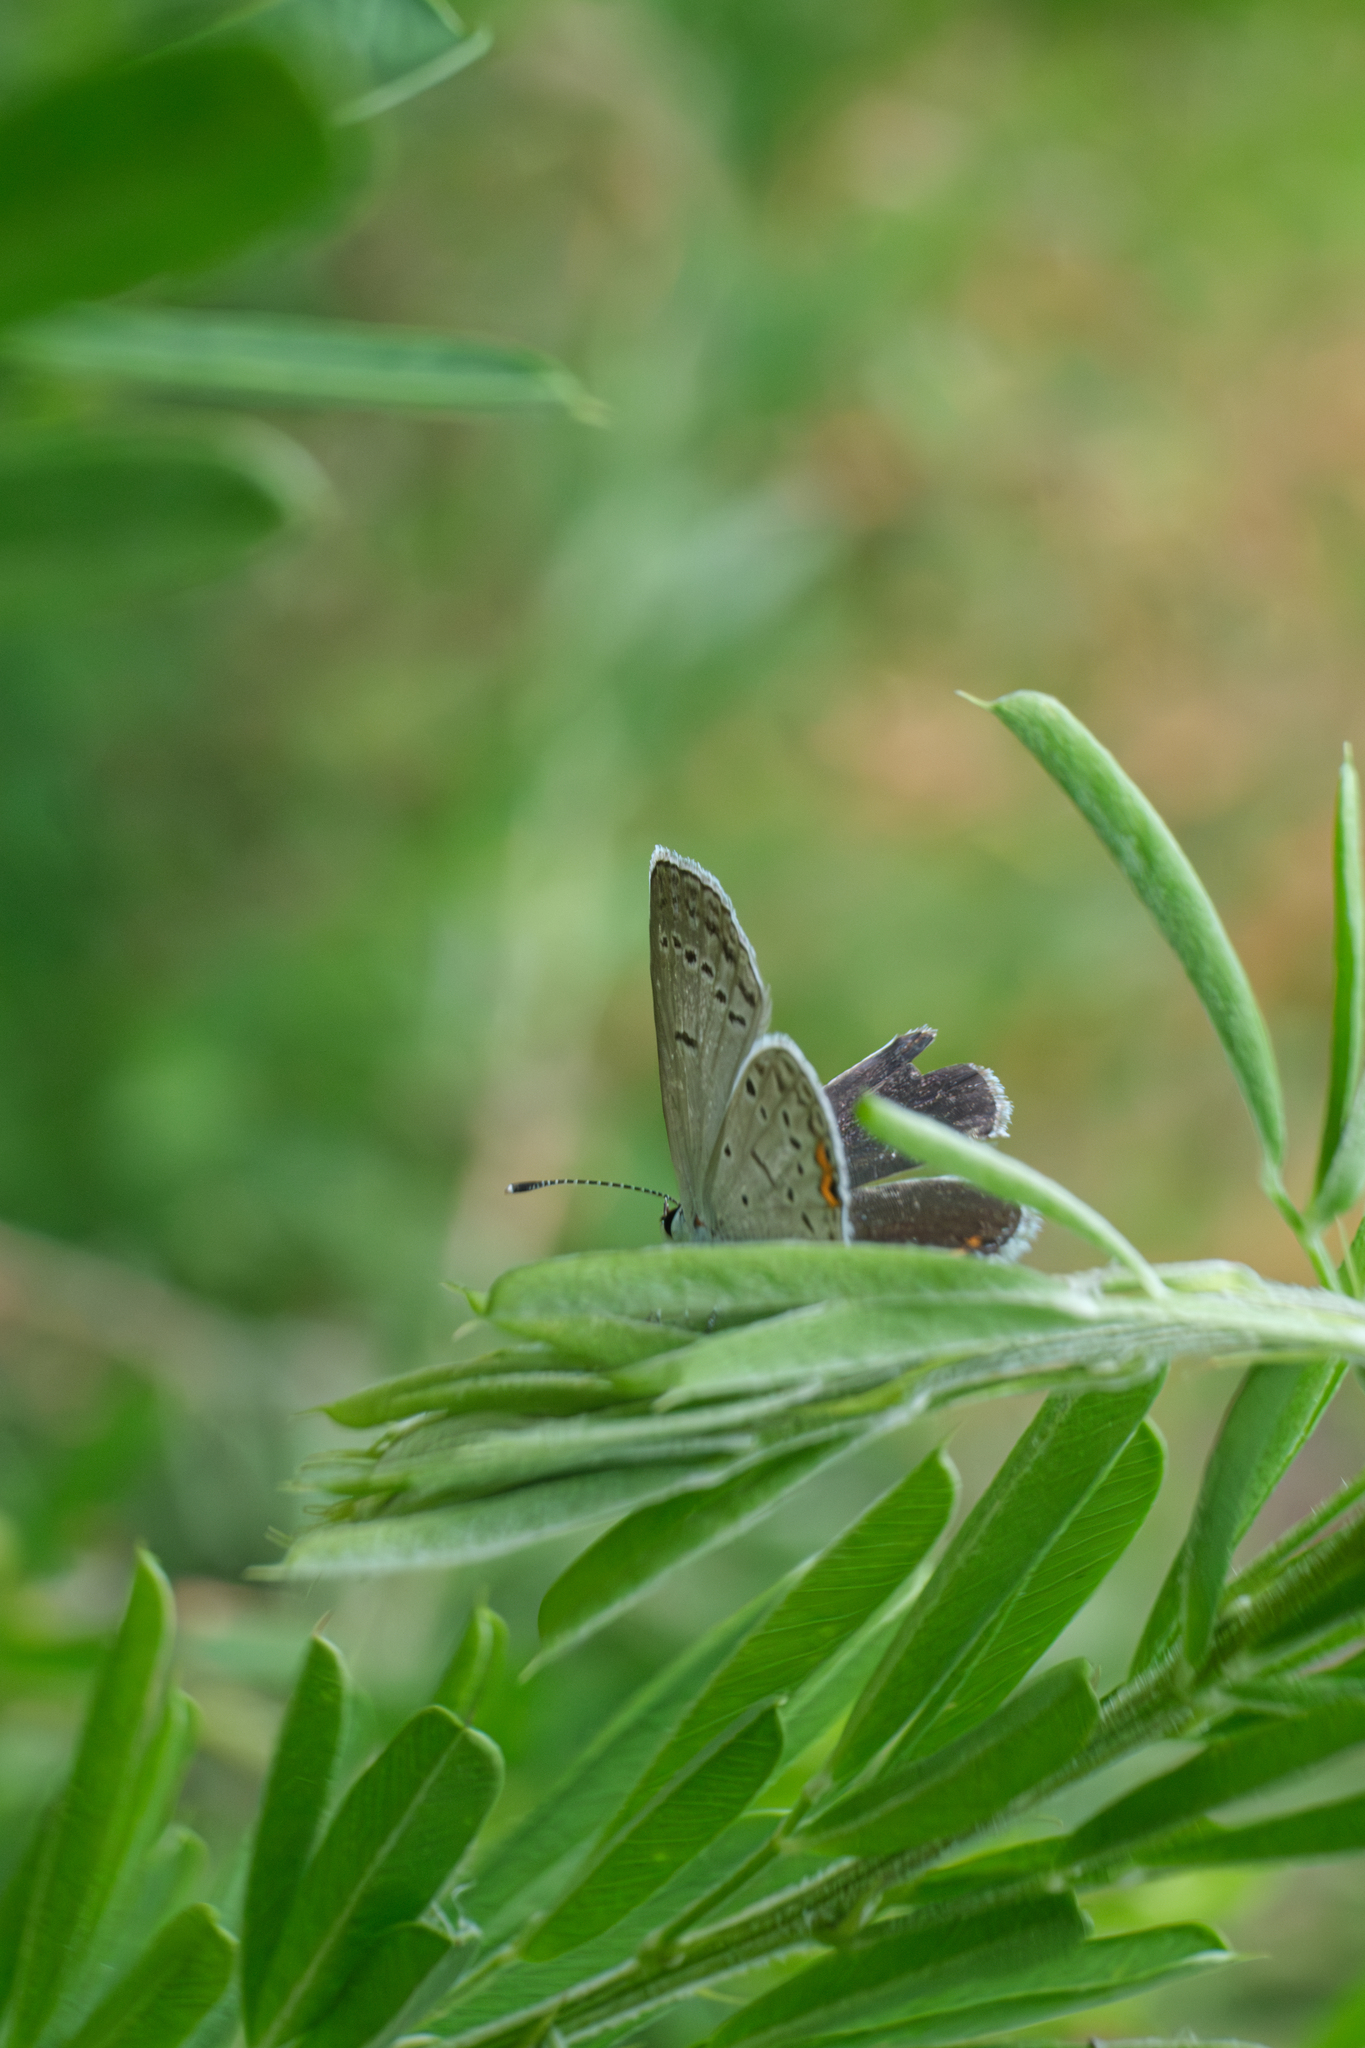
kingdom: Animalia
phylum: Arthropoda
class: Insecta
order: Lepidoptera
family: Lycaenidae
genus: Elkalyce
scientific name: Elkalyce comyntas
